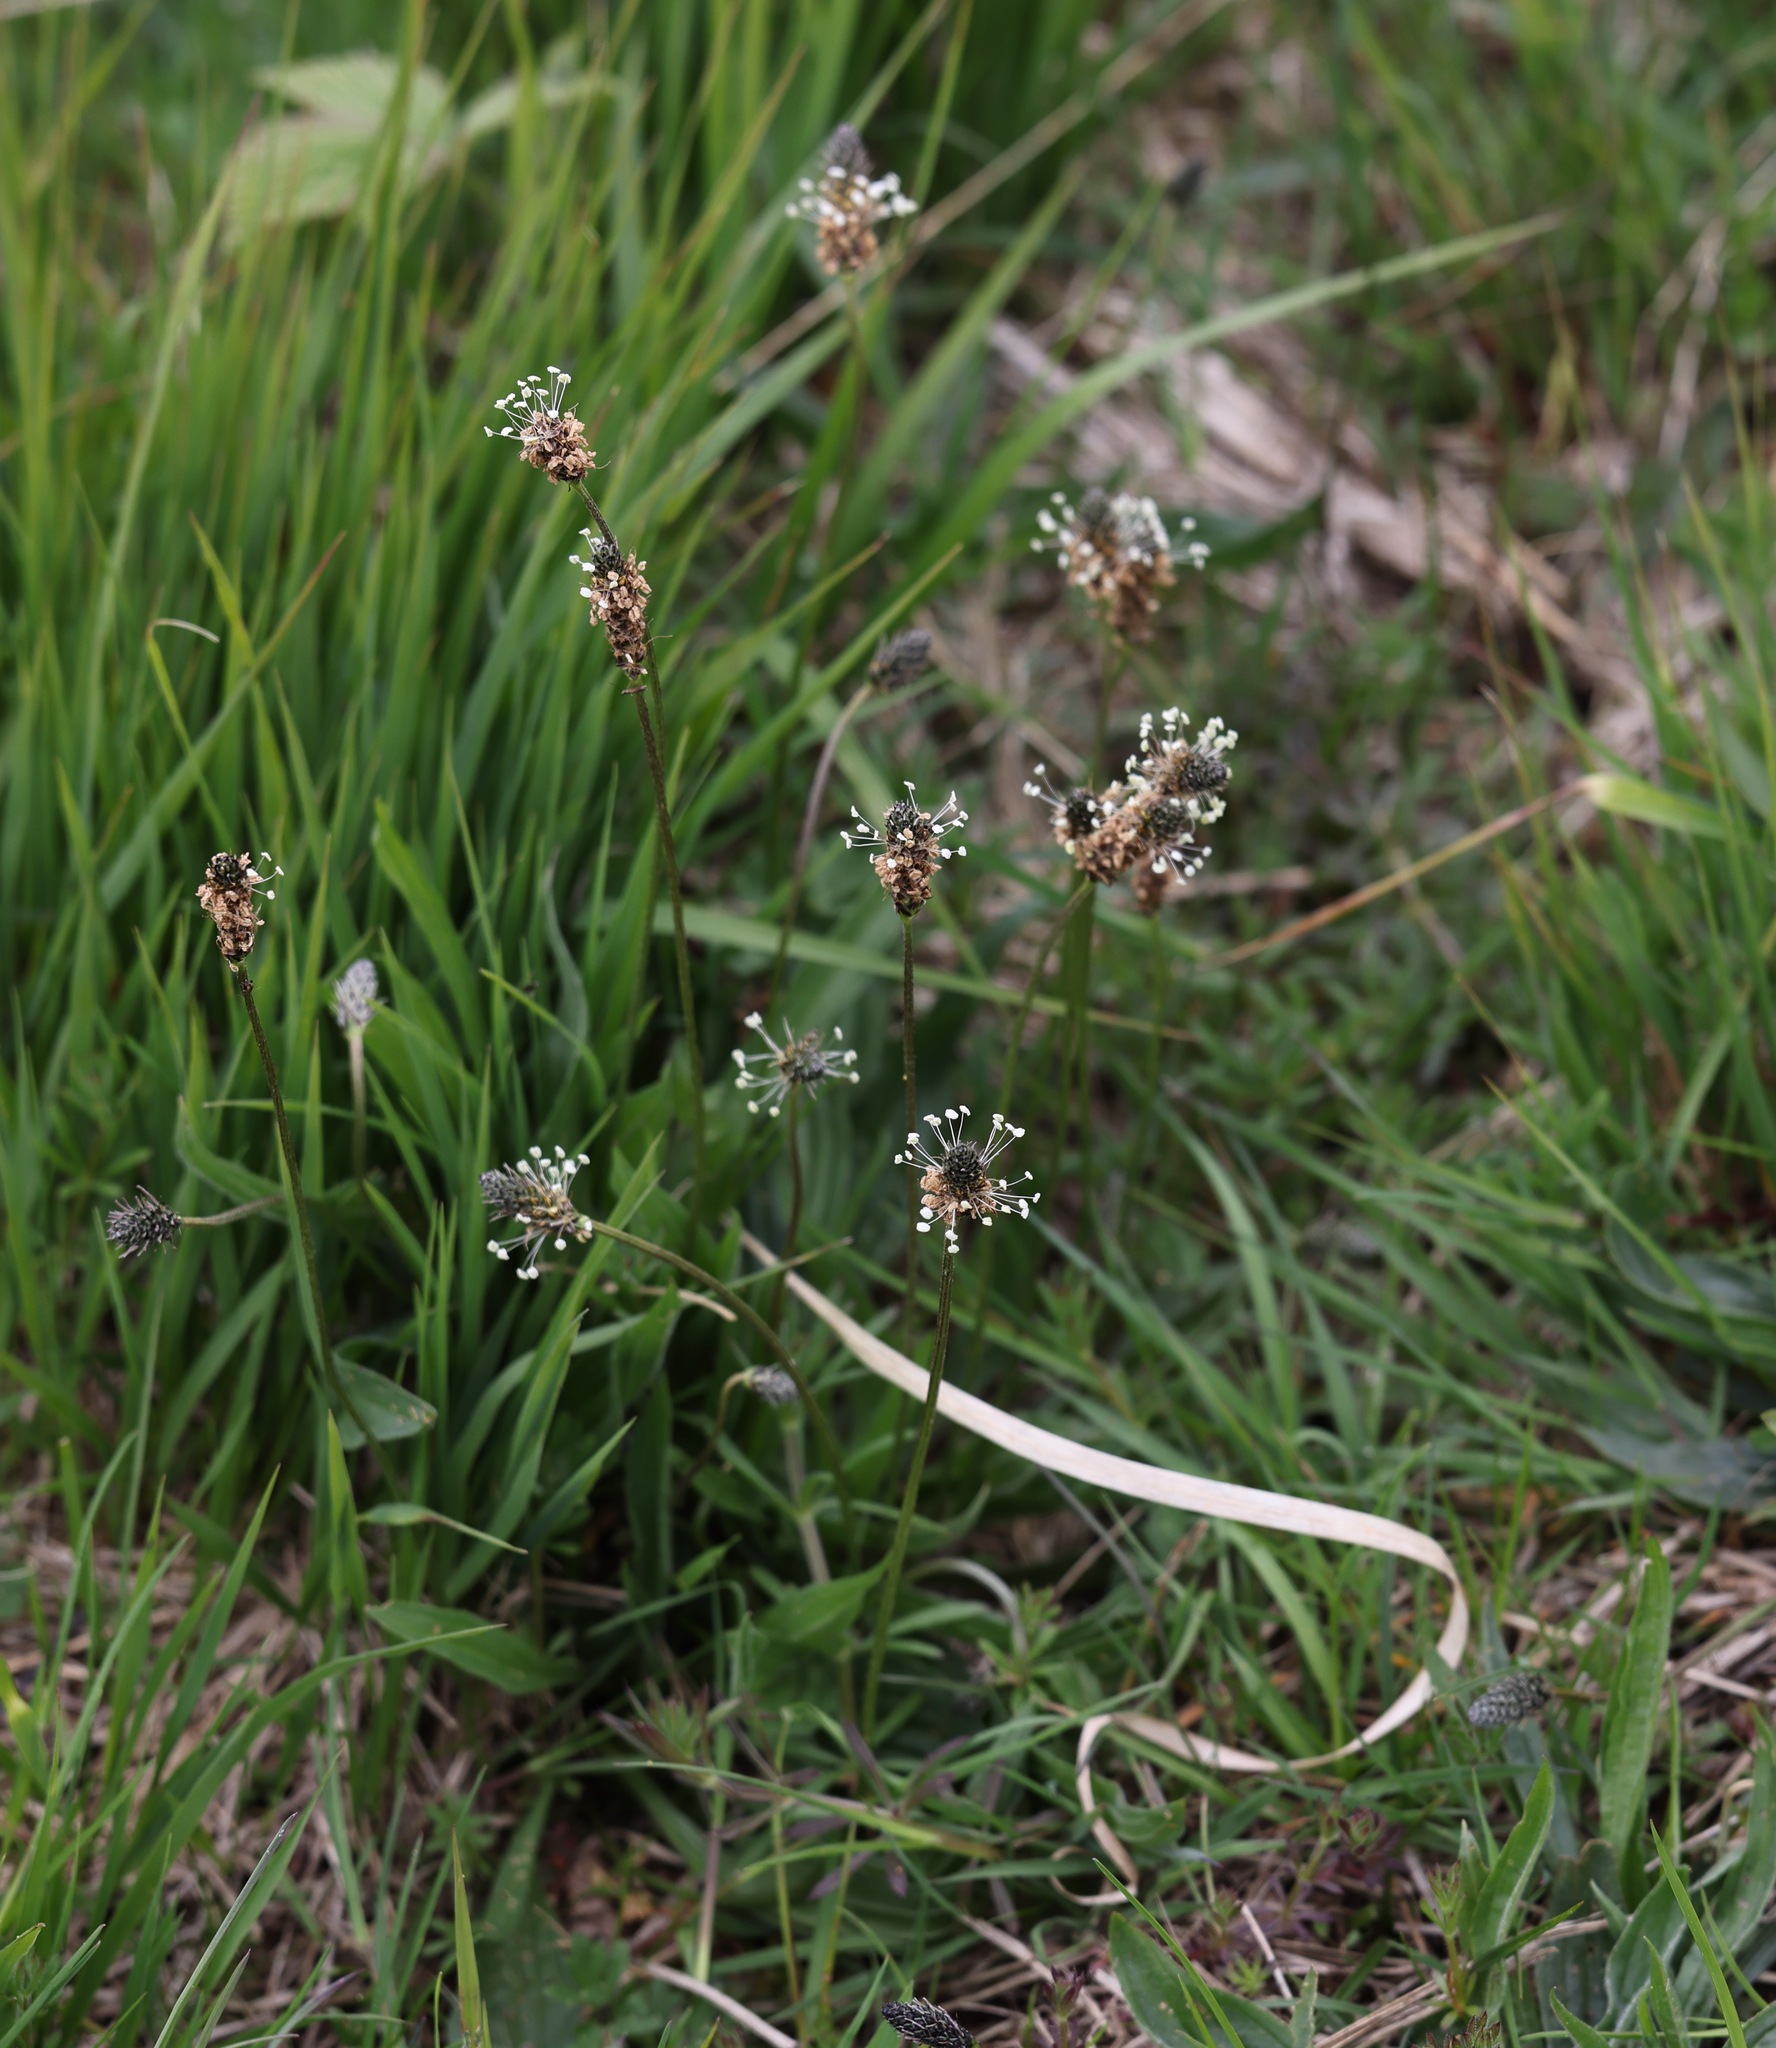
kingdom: Plantae
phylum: Tracheophyta
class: Magnoliopsida
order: Lamiales
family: Plantaginaceae
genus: Plantago
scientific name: Plantago lanceolata
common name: Ribwort plantain
